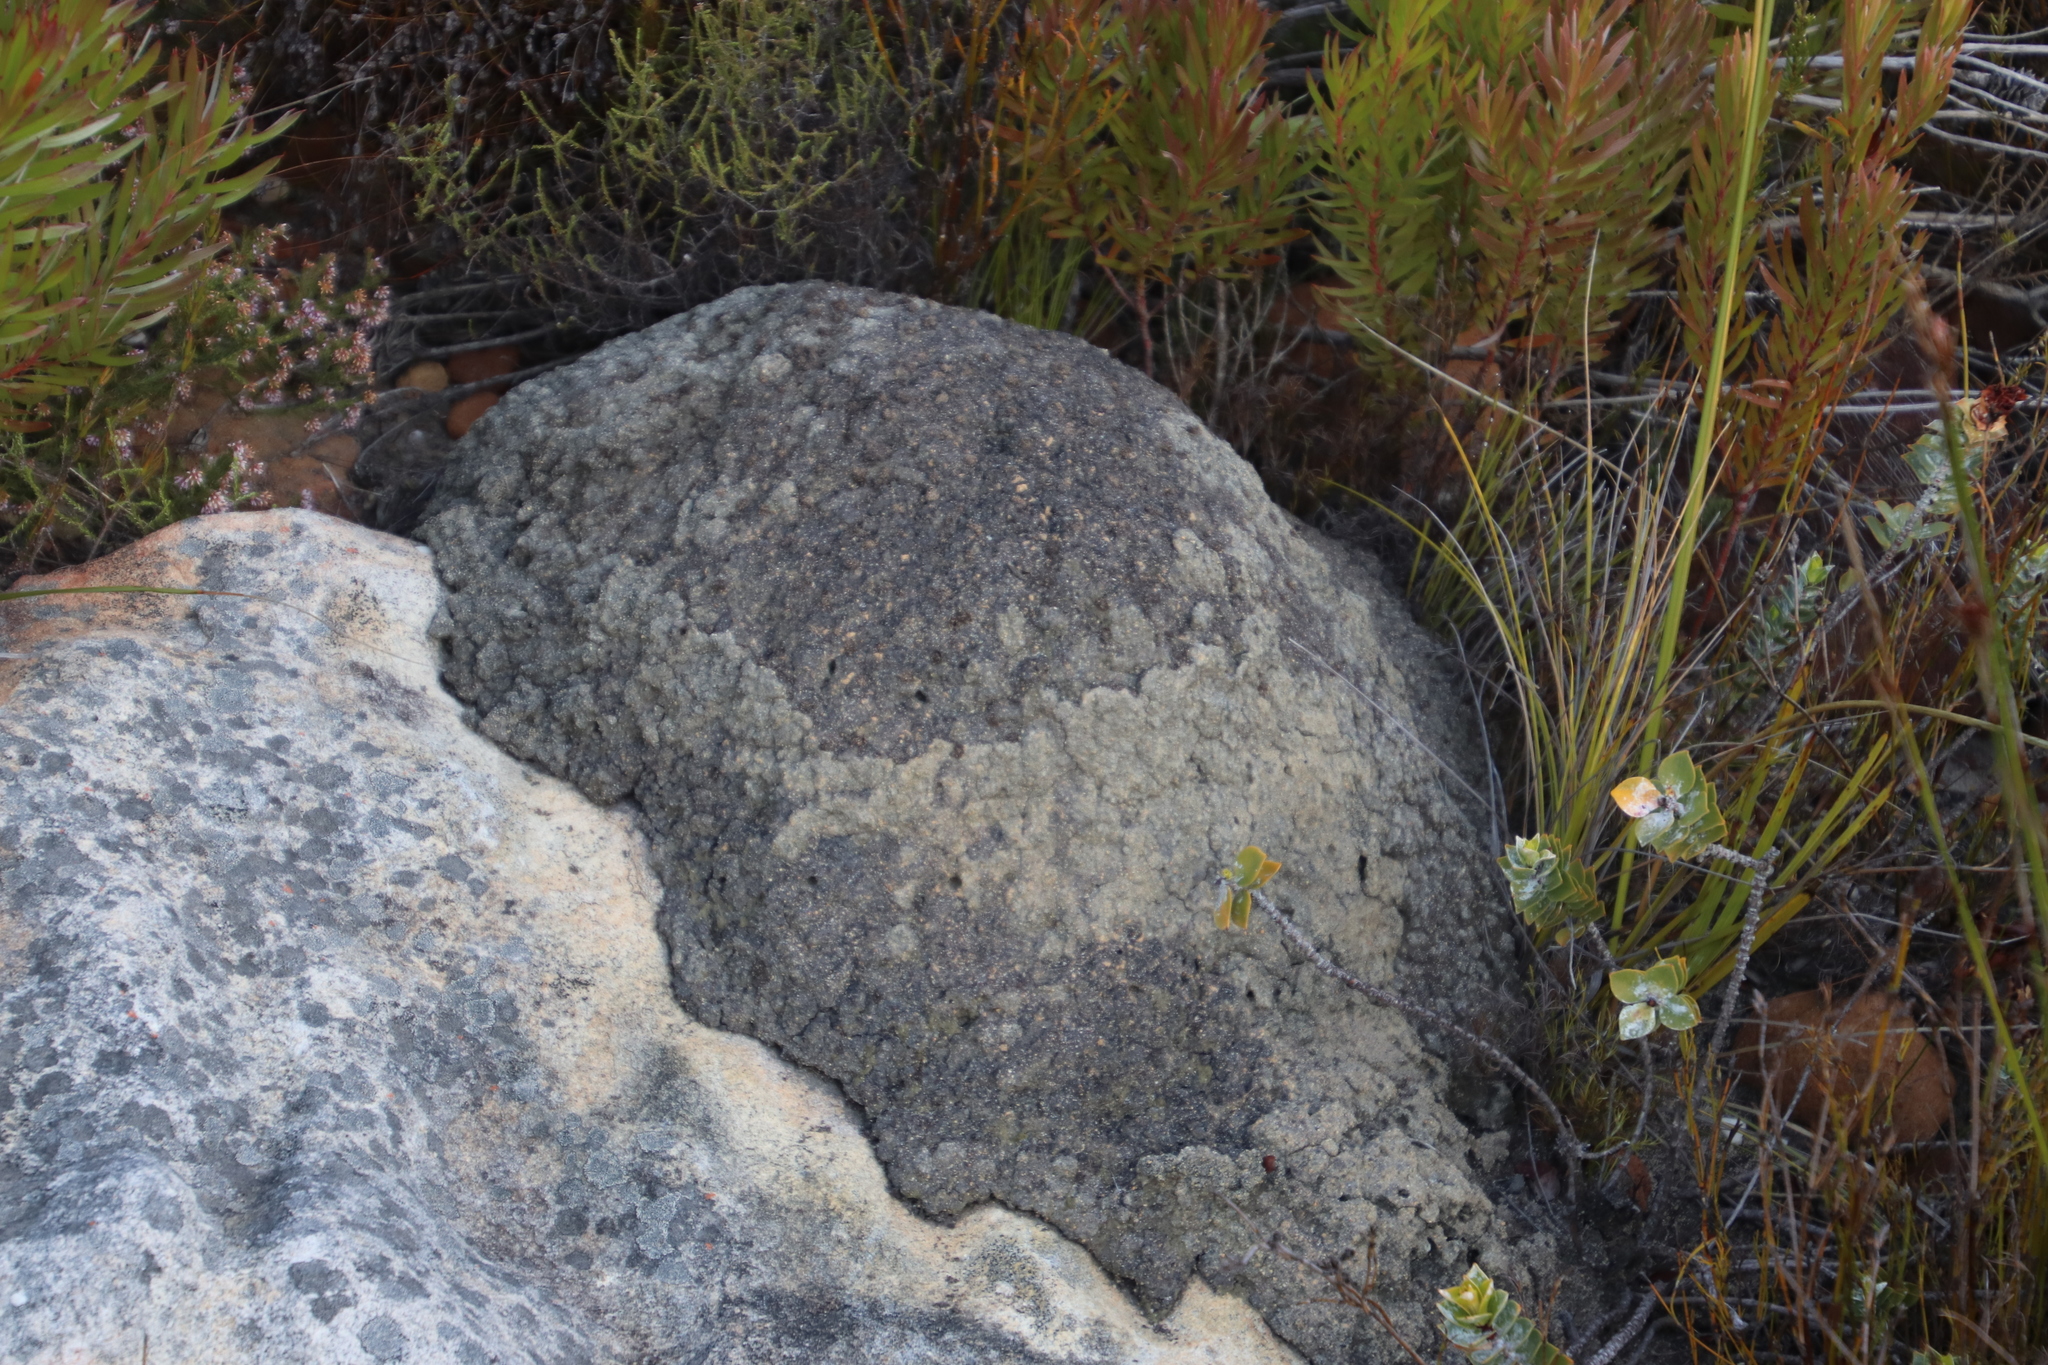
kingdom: Animalia
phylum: Arthropoda
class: Insecta
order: Blattodea
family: Termitidae
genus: Amitermes
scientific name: Amitermes hastatus
